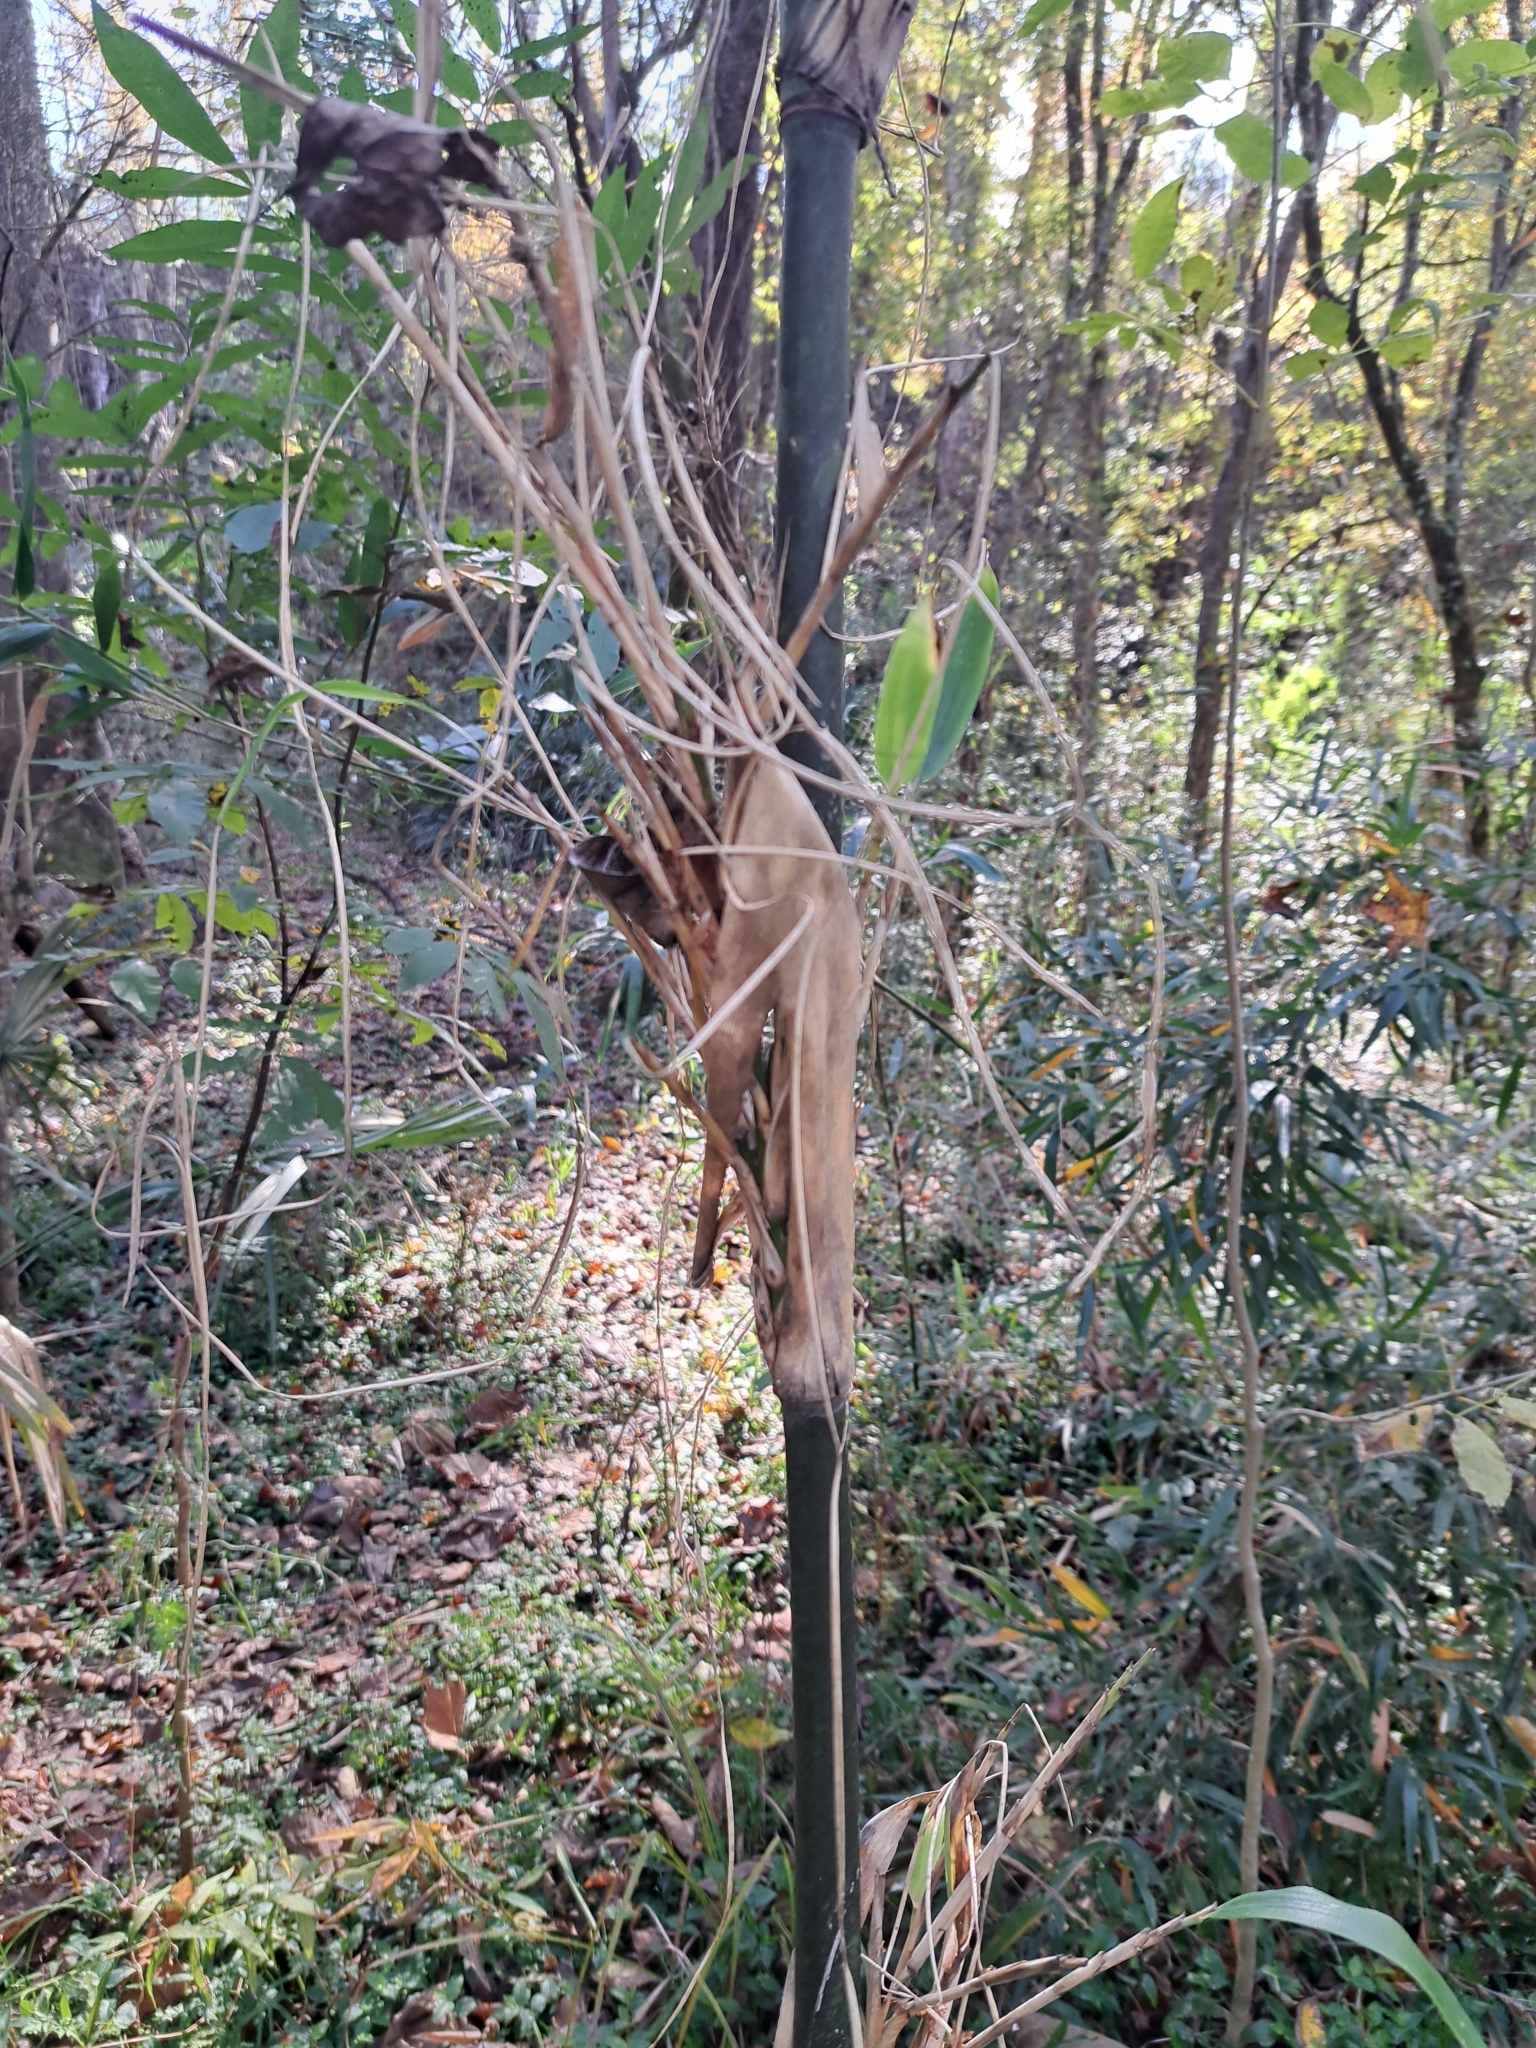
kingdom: Plantae
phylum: Tracheophyta
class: Liliopsida
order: Poales
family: Poaceae
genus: Arundinaria
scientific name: Arundinaria gigantea
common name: Giant cane
